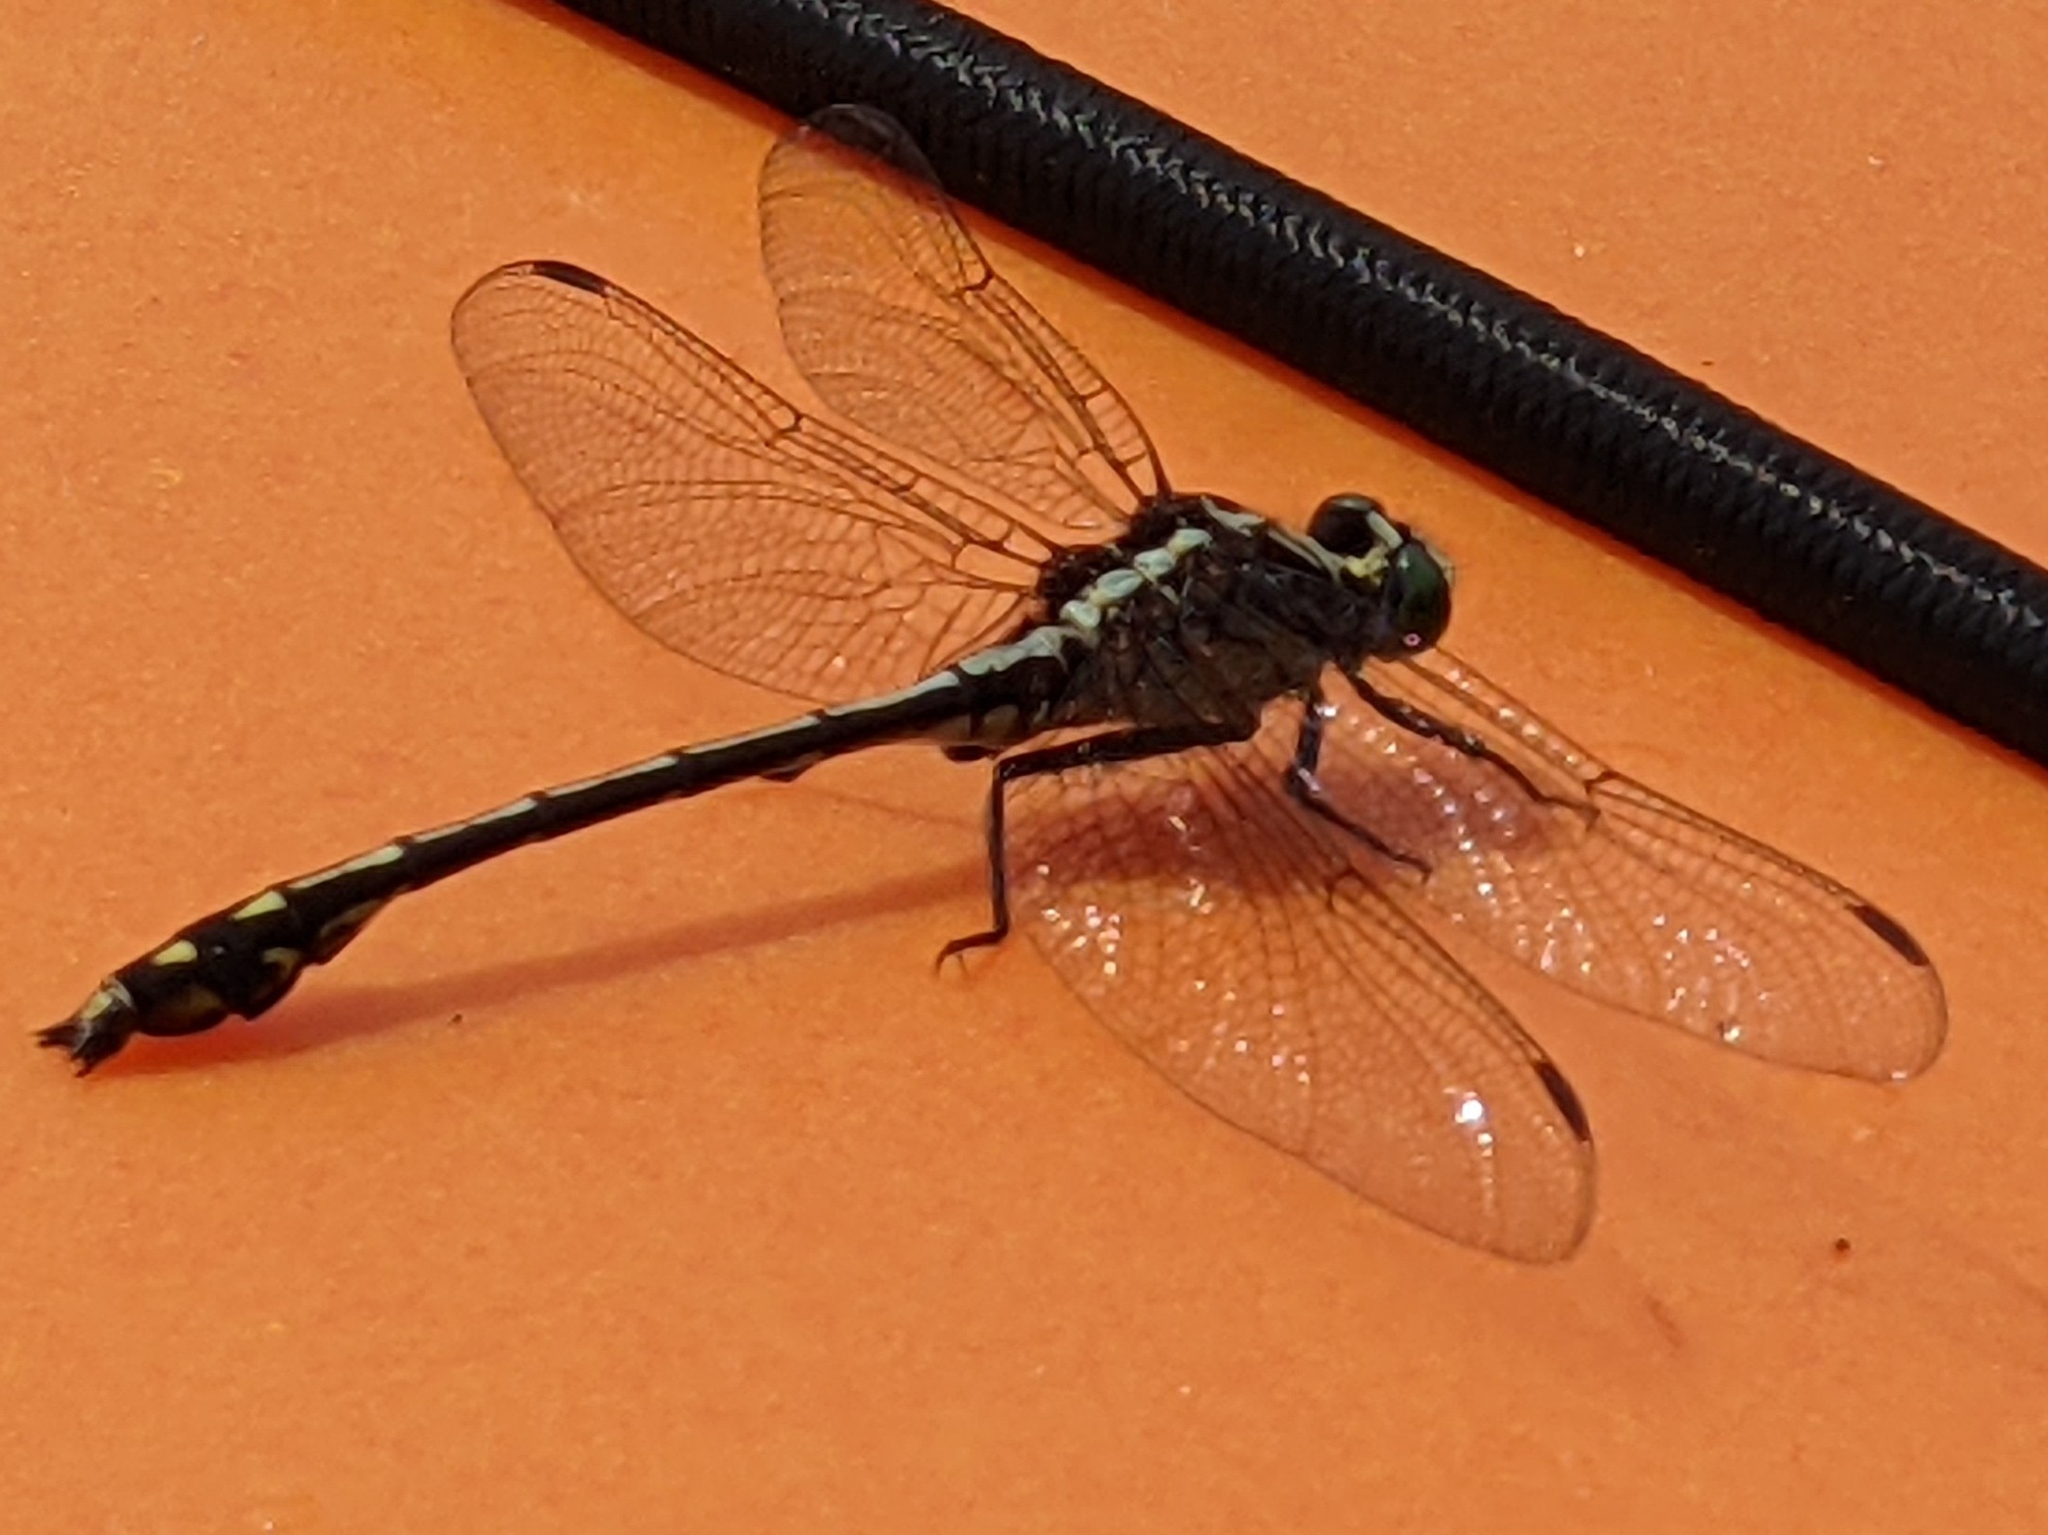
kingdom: Animalia
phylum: Arthropoda
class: Insecta
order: Odonata
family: Gomphidae
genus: Dromogomphus
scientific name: Dromogomphus spinosus
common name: Black-shouldered spinyleg
